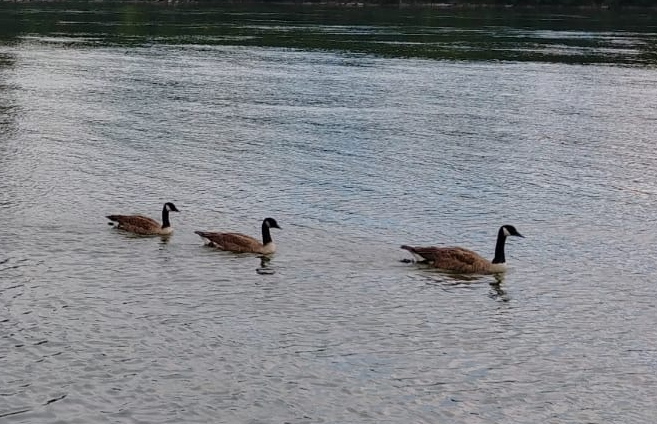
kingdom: Animalia
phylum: Chordata
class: Aves
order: Anseriformes
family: Anatidae
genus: Branta
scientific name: Branta canadensis
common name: Canada goose
